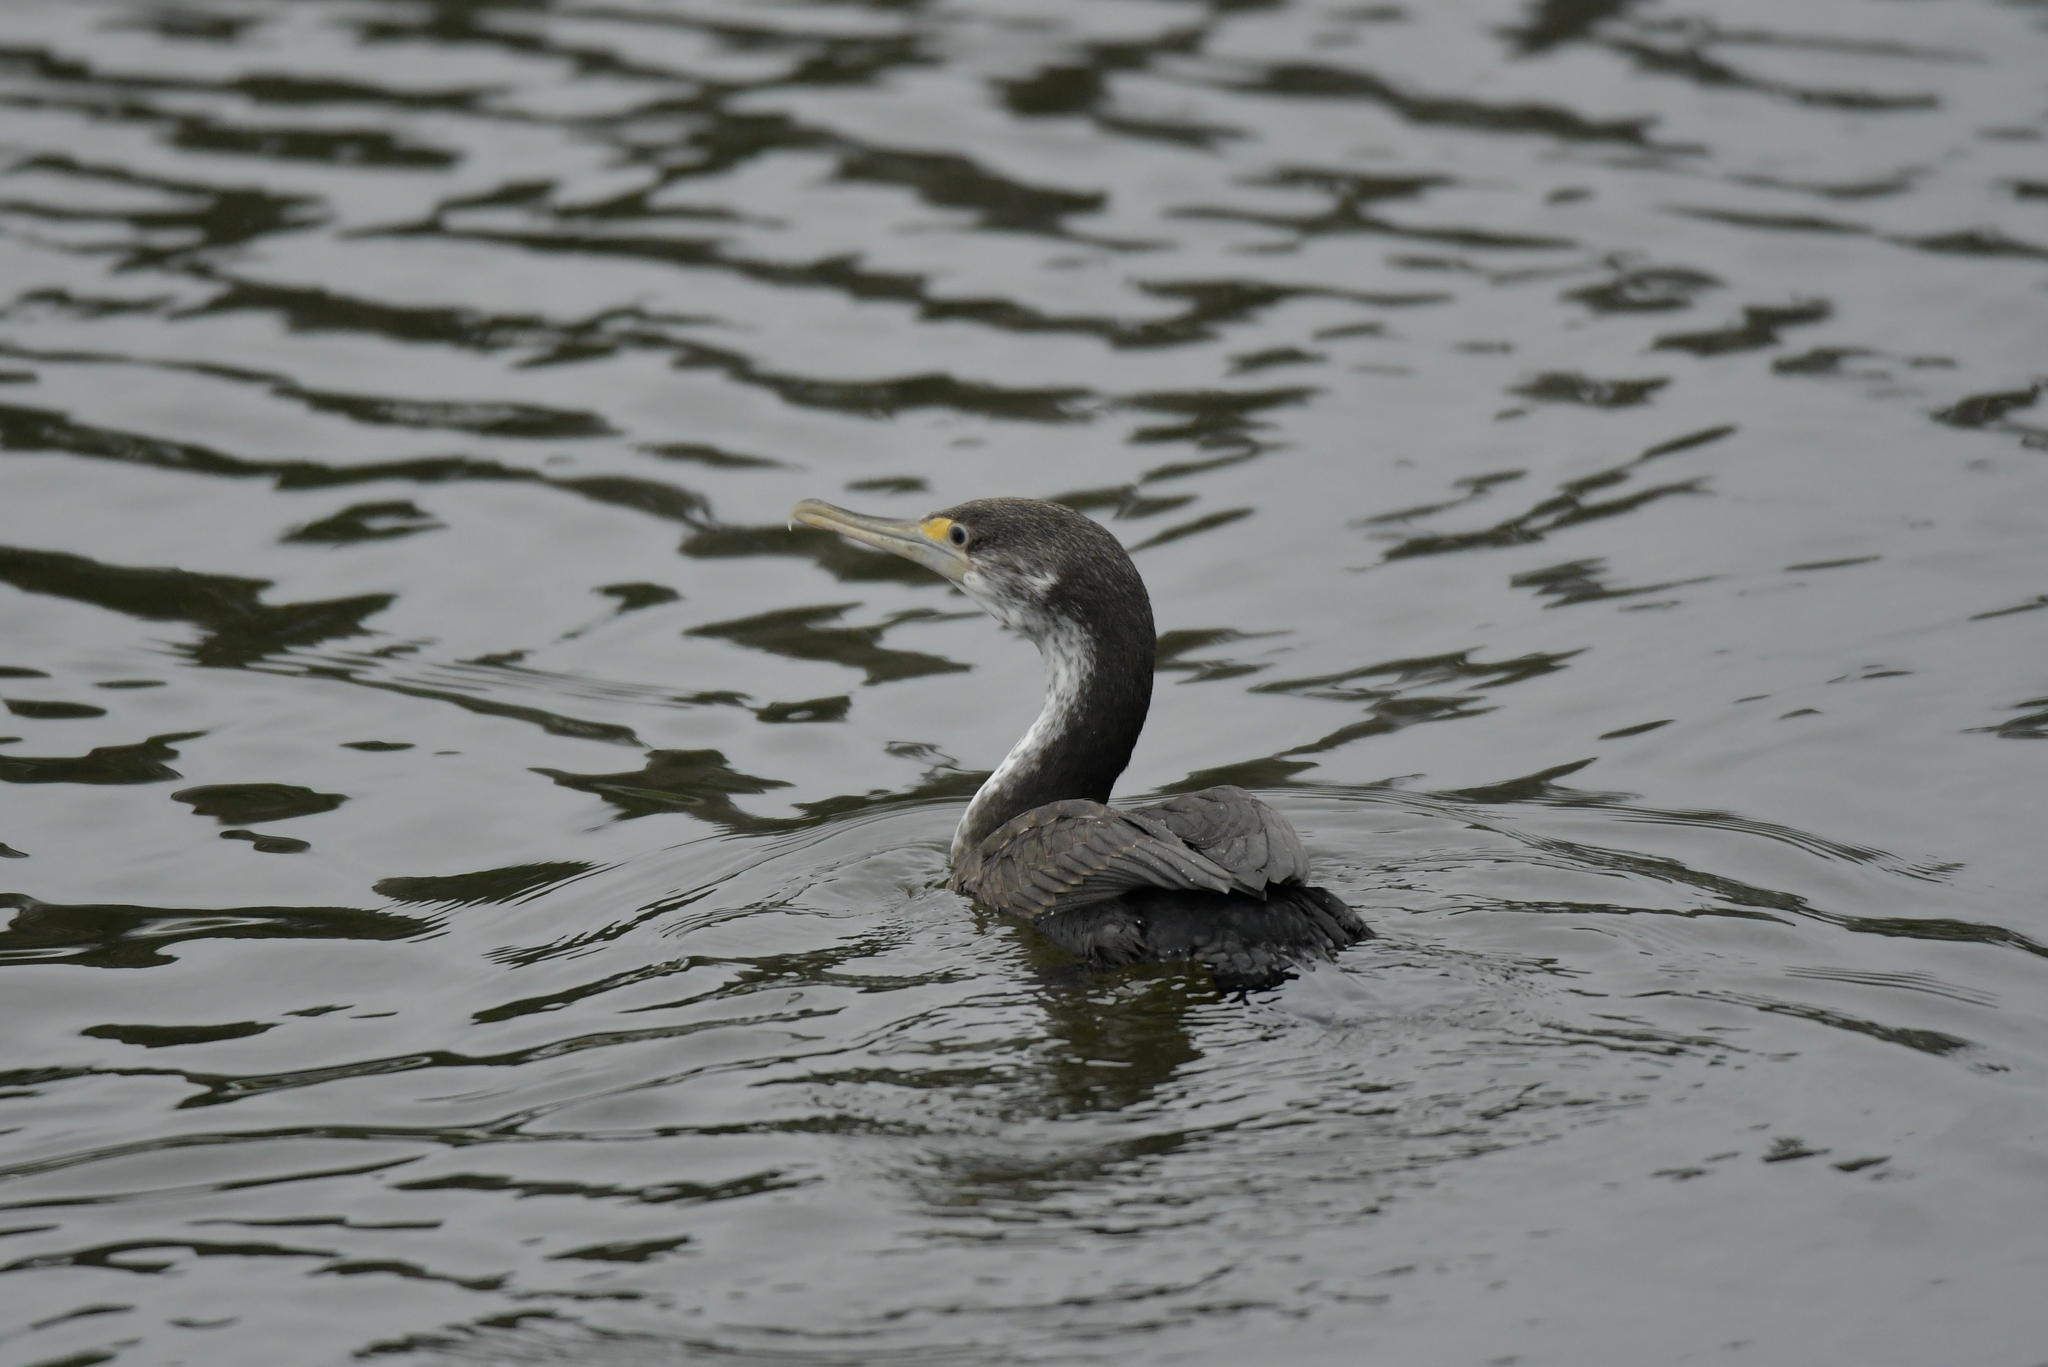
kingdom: Animalia
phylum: Chordata
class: Aves
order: Suliformes
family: Phalacrocoracidae
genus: Phalacrocorax
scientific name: Phalacrocorax varius
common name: Pied cormorant
